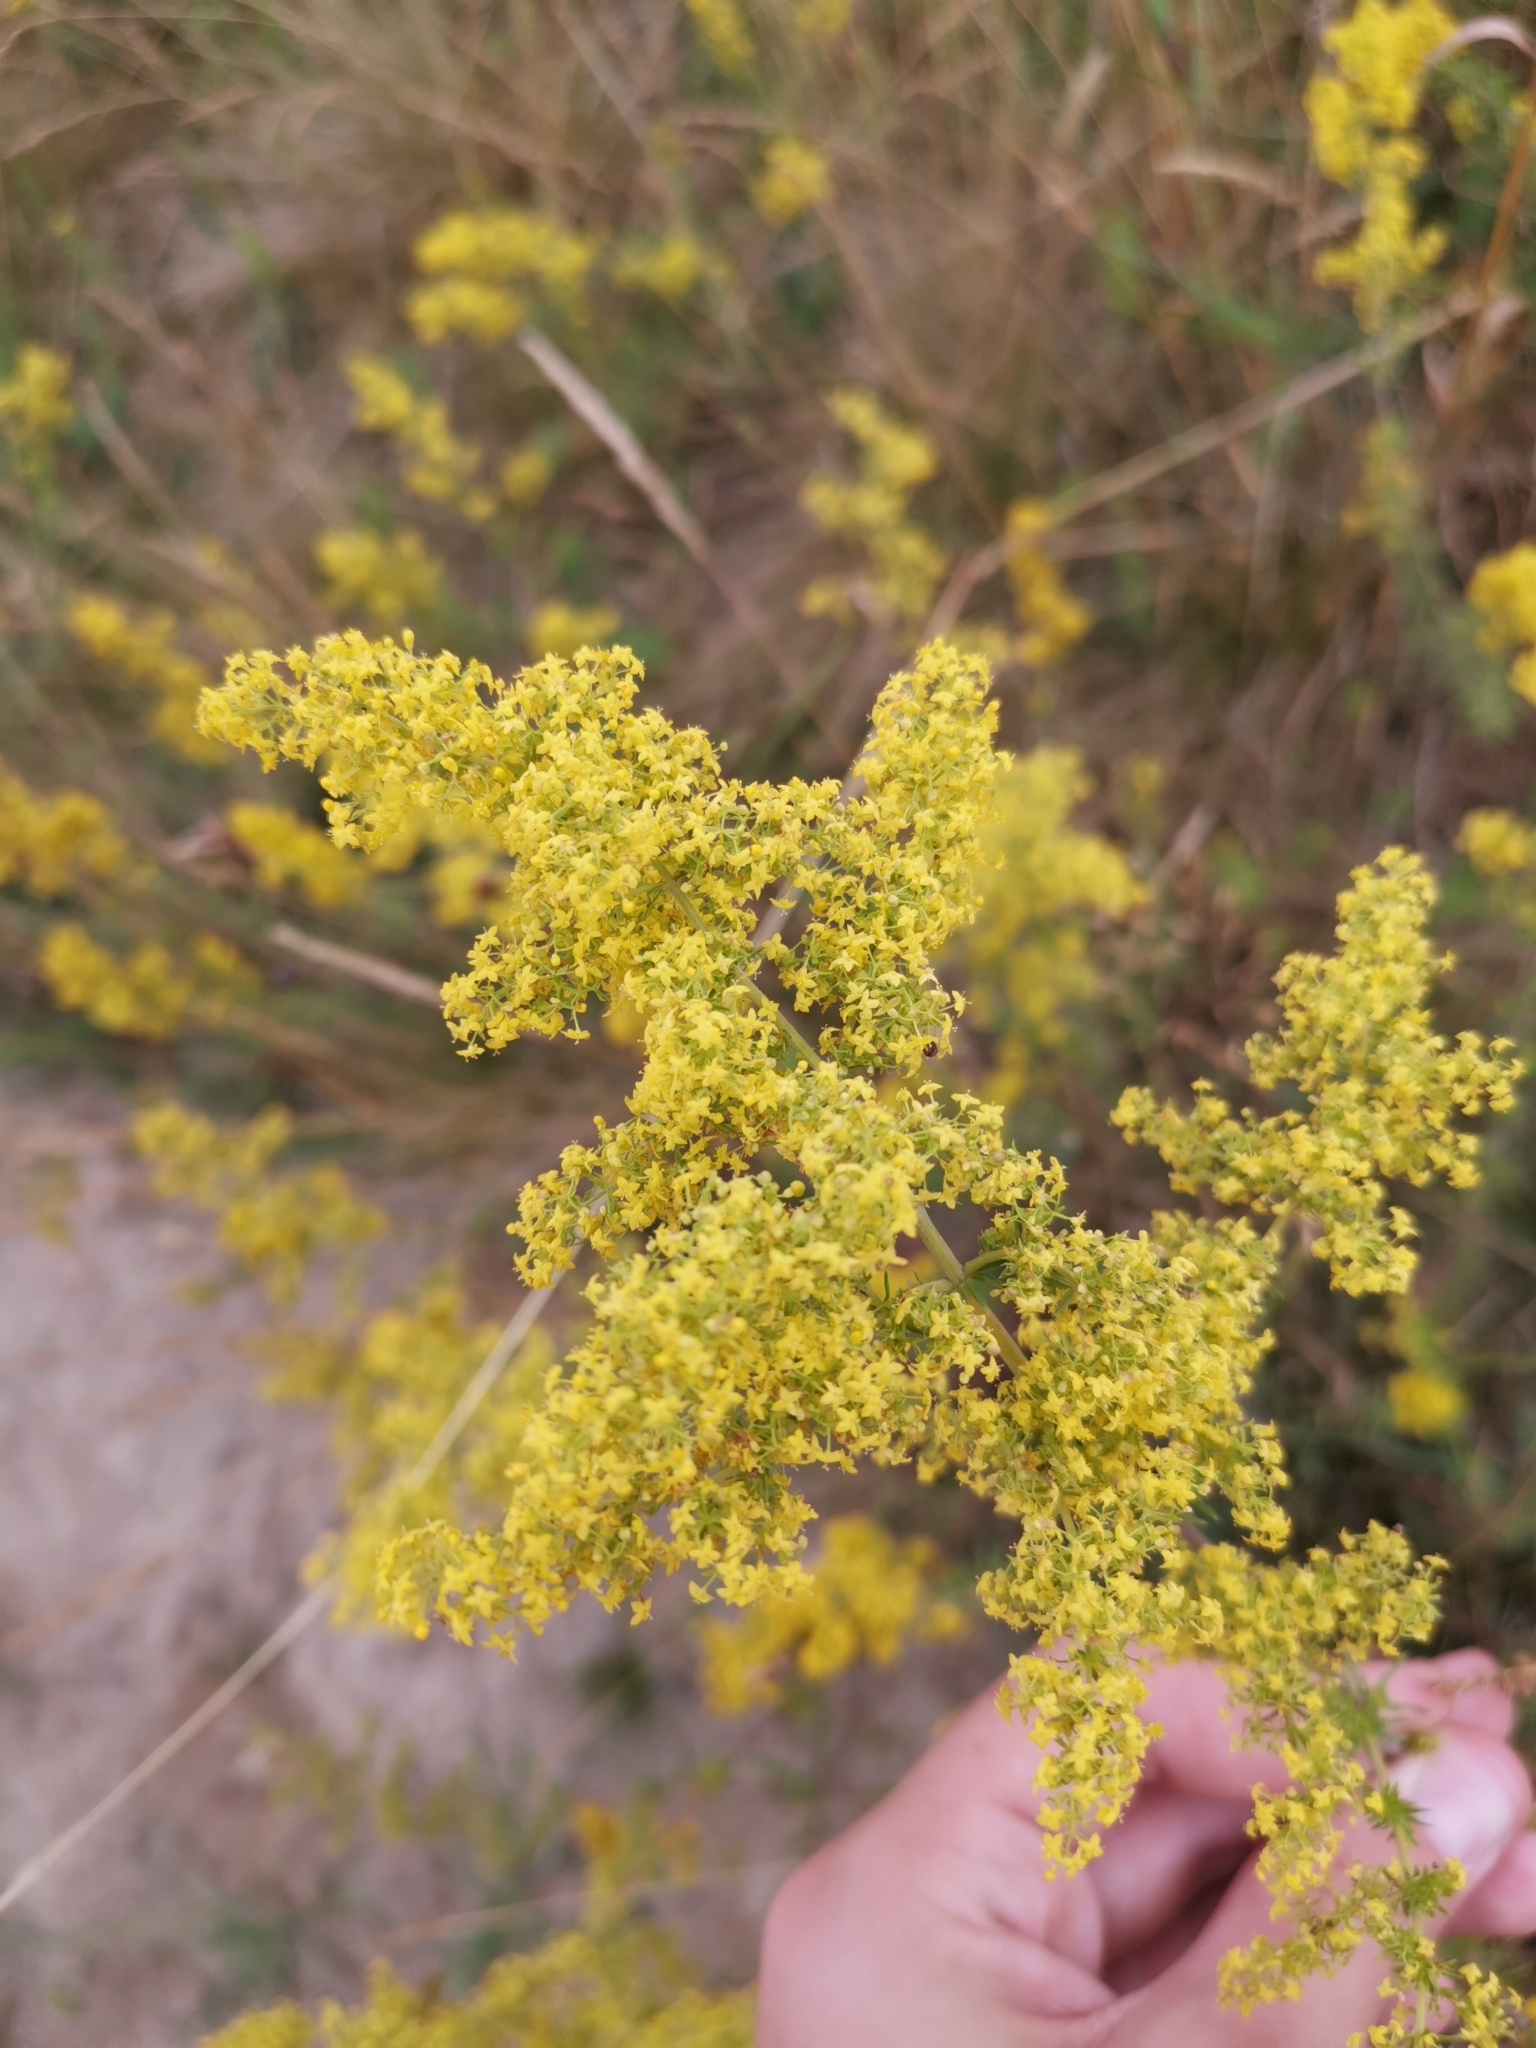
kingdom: Plantae
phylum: Tracheophyta
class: Magnoliopsida
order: Gentianales
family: Rubiaceae
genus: Galium
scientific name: Galium verum
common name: Lady's bedstraw
